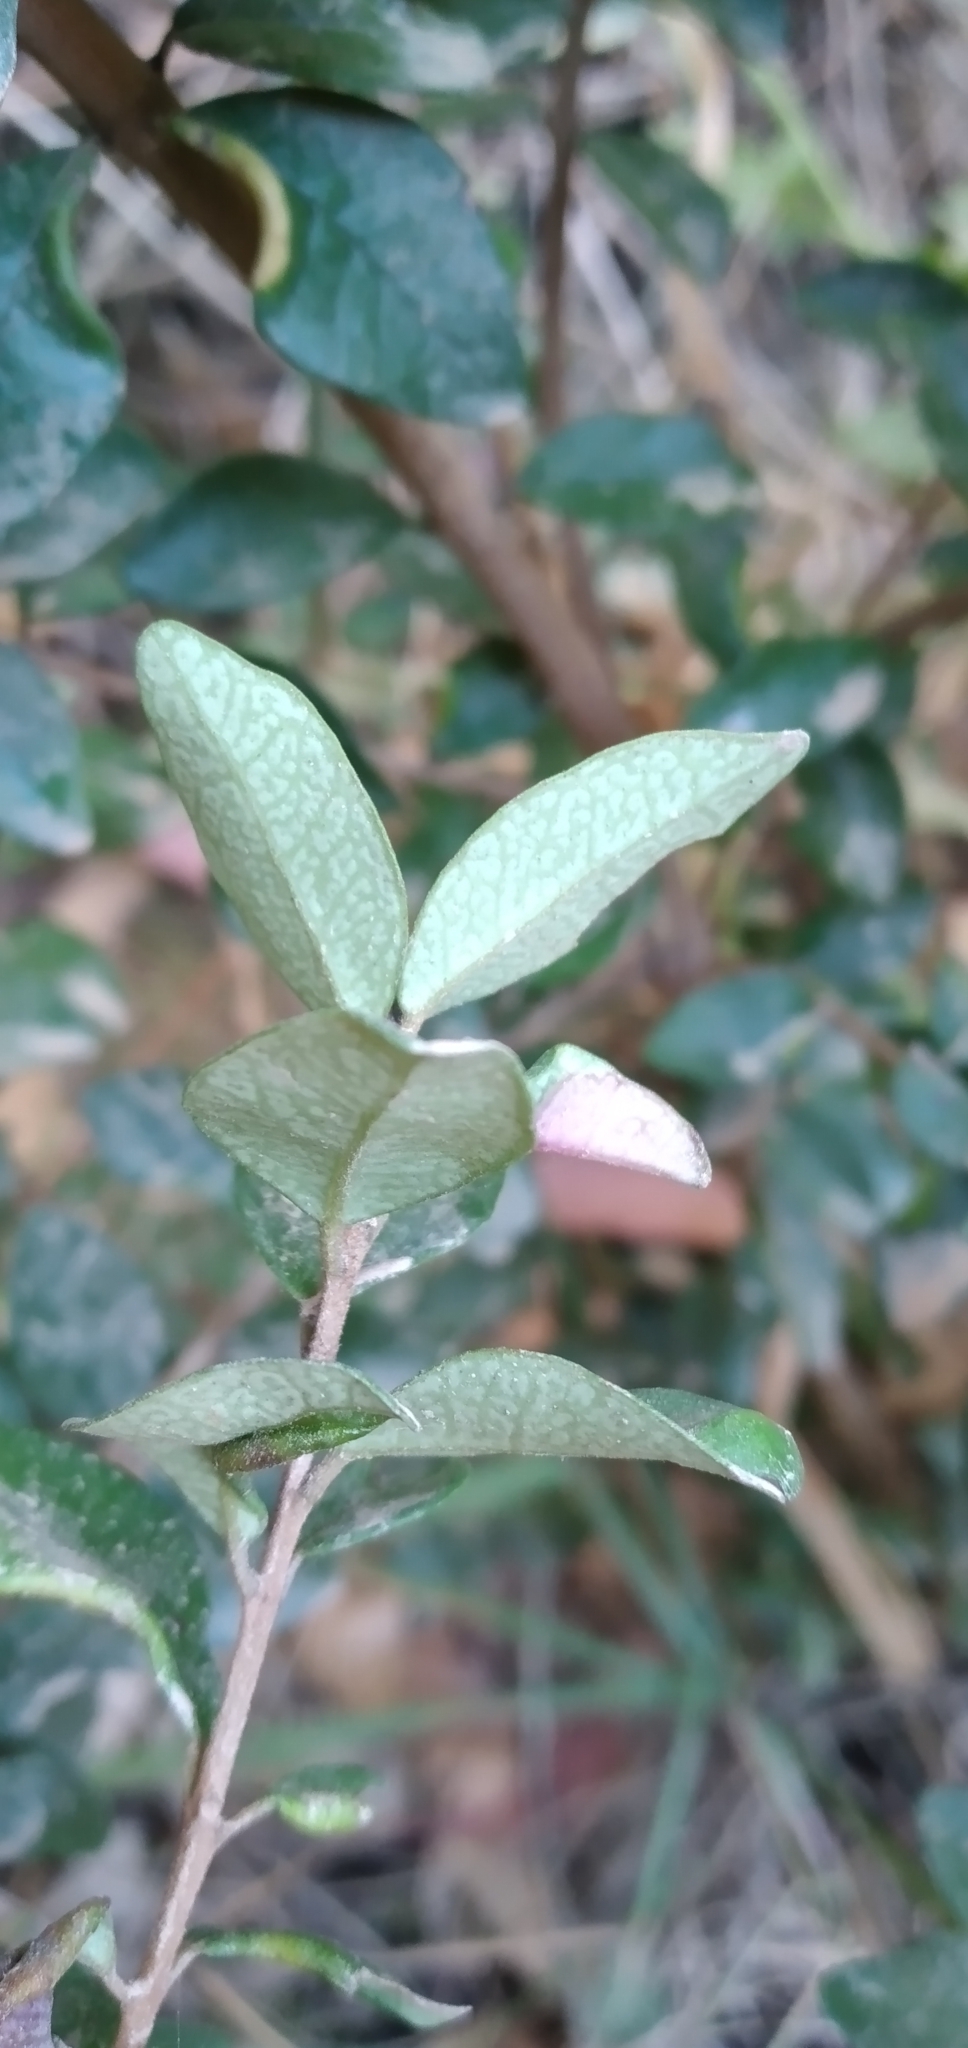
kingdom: Plantae
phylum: Tracheophyta
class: Magnoliopsida
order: Myrtales
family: Myrtaceae
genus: Myrceugenia
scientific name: Myrceugenia obtusa
